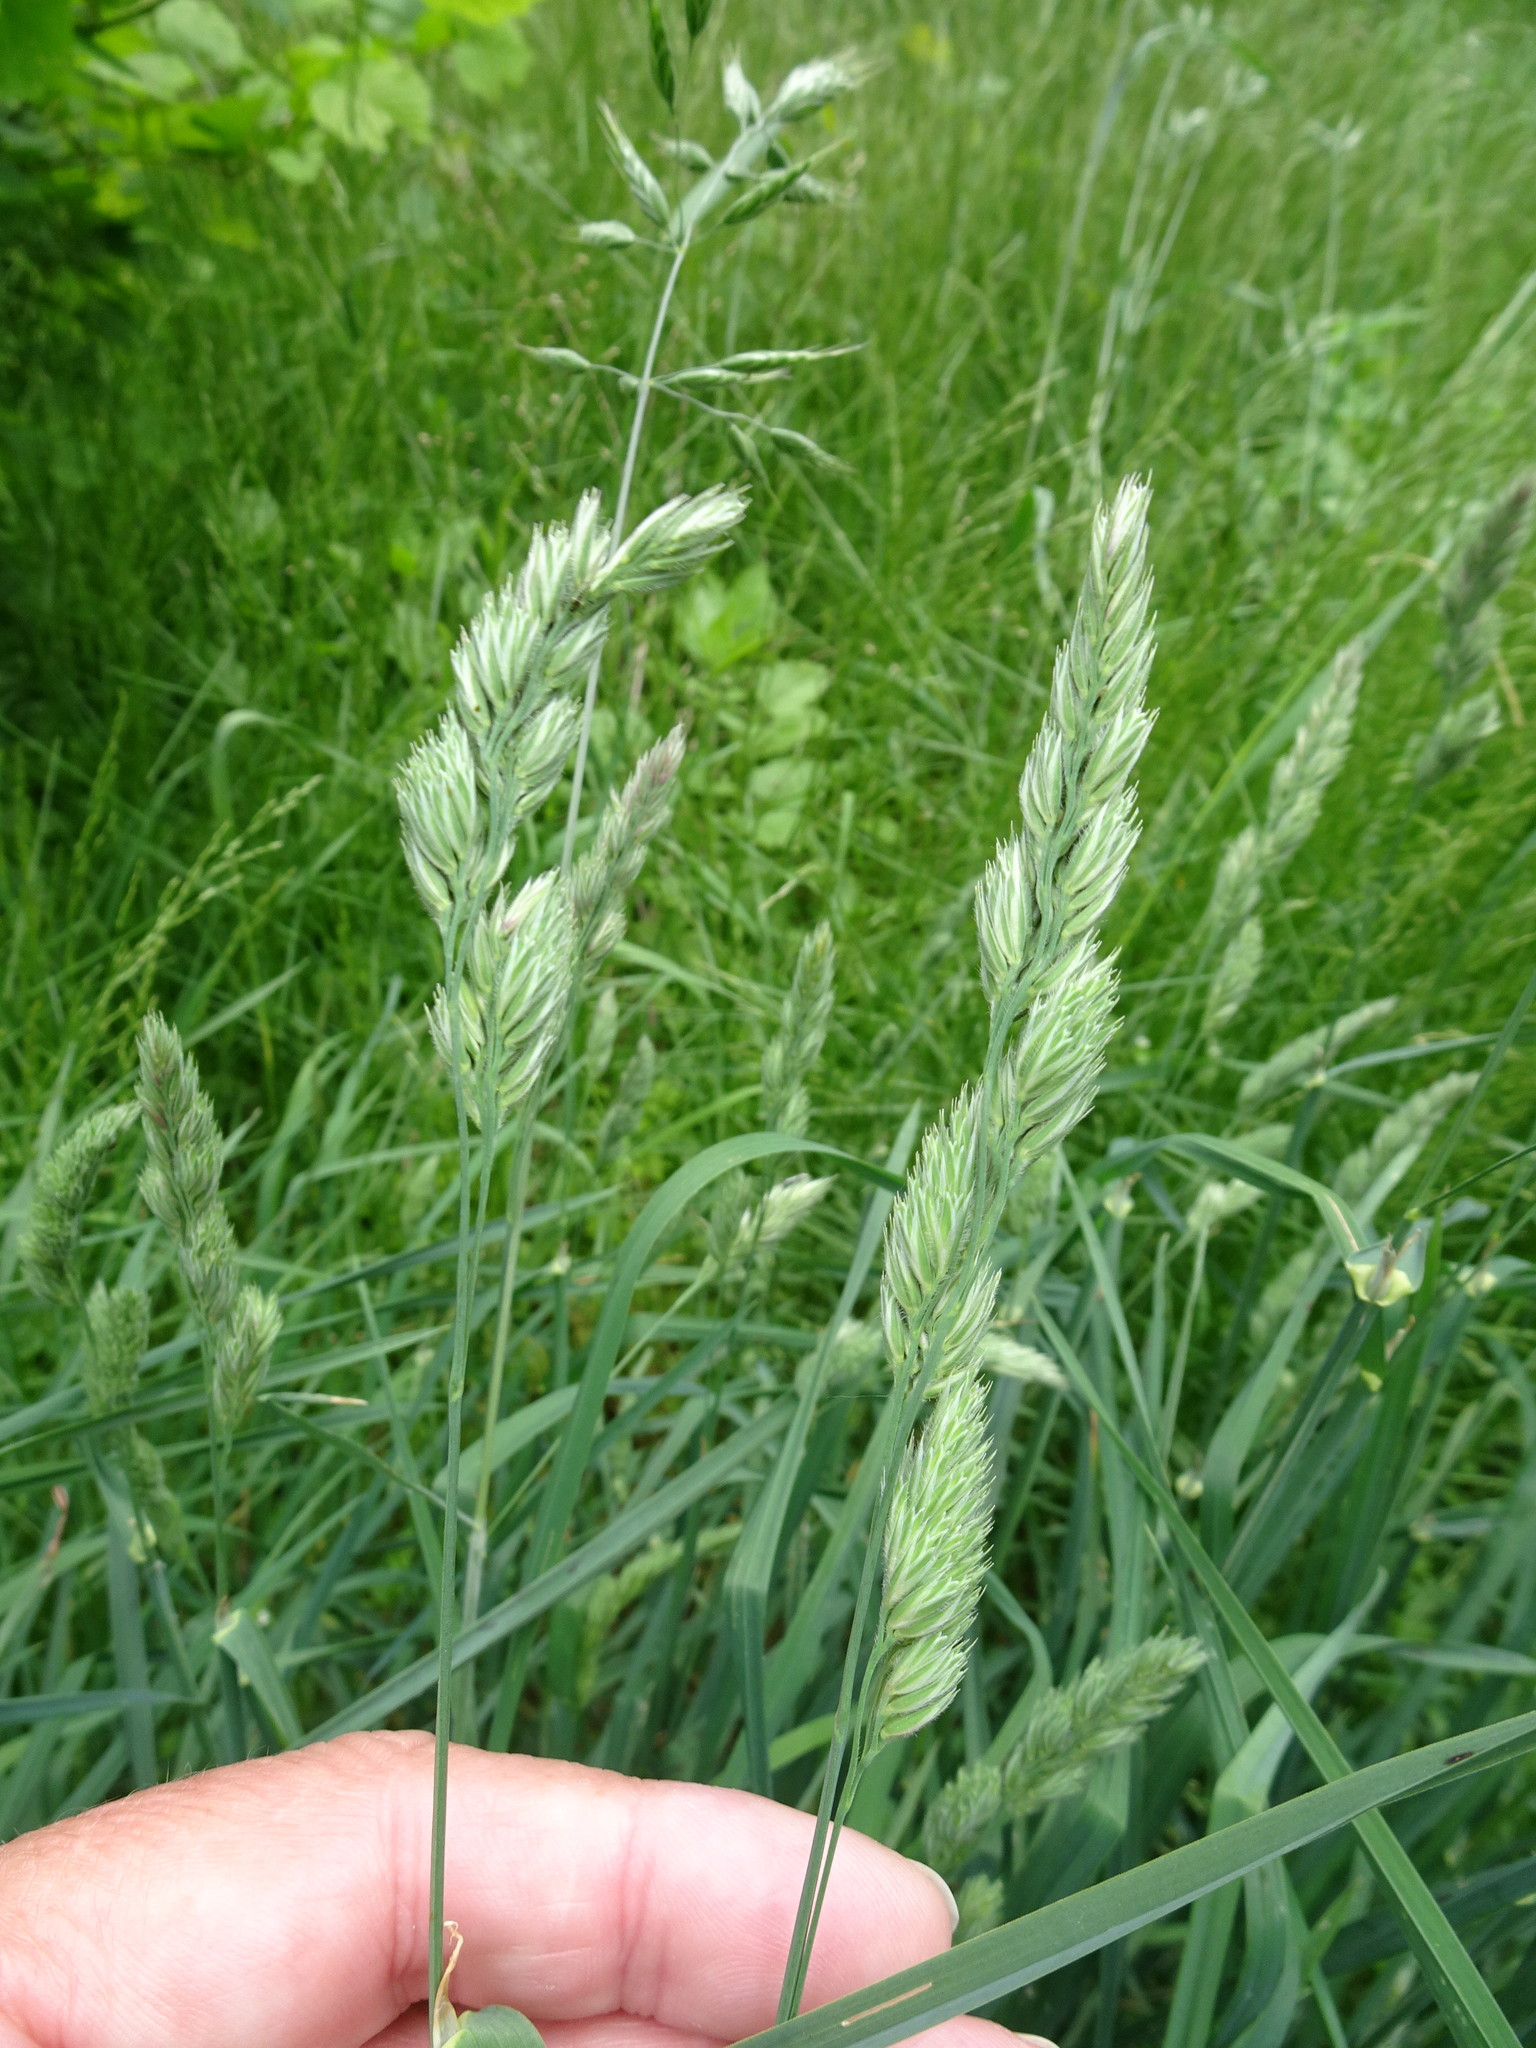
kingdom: Plantae
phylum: Tracheophyta
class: Liliopsida
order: Poales
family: Poaceae
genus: Dactylis
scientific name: Dactylis glomerata
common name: Orchardgrass
